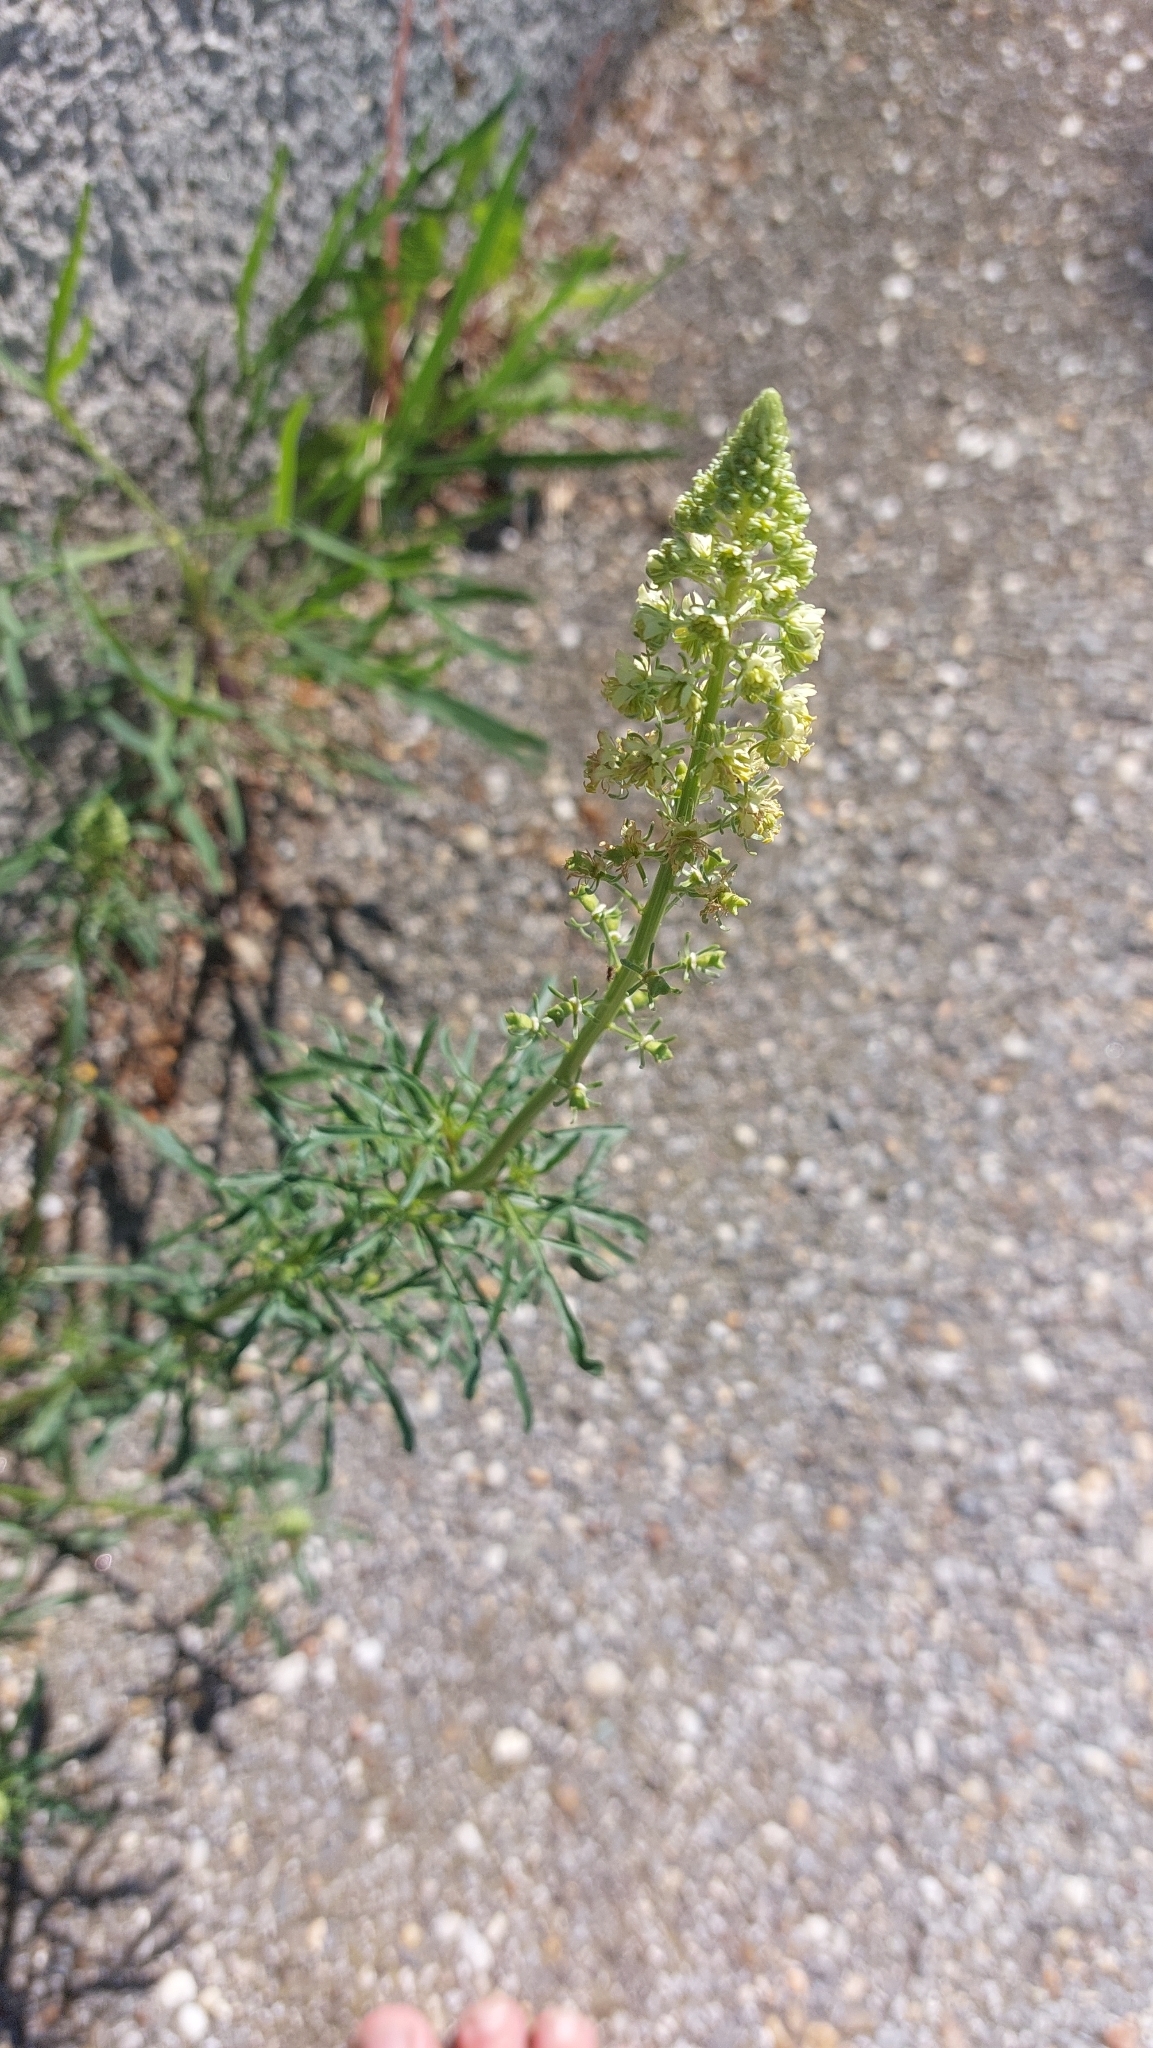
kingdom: Plantae
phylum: Tracheophyta
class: Magnoliopsida
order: Brassicales
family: Resedaceae
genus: Reseda
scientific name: Reseda lutea
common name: Wild mignonette
